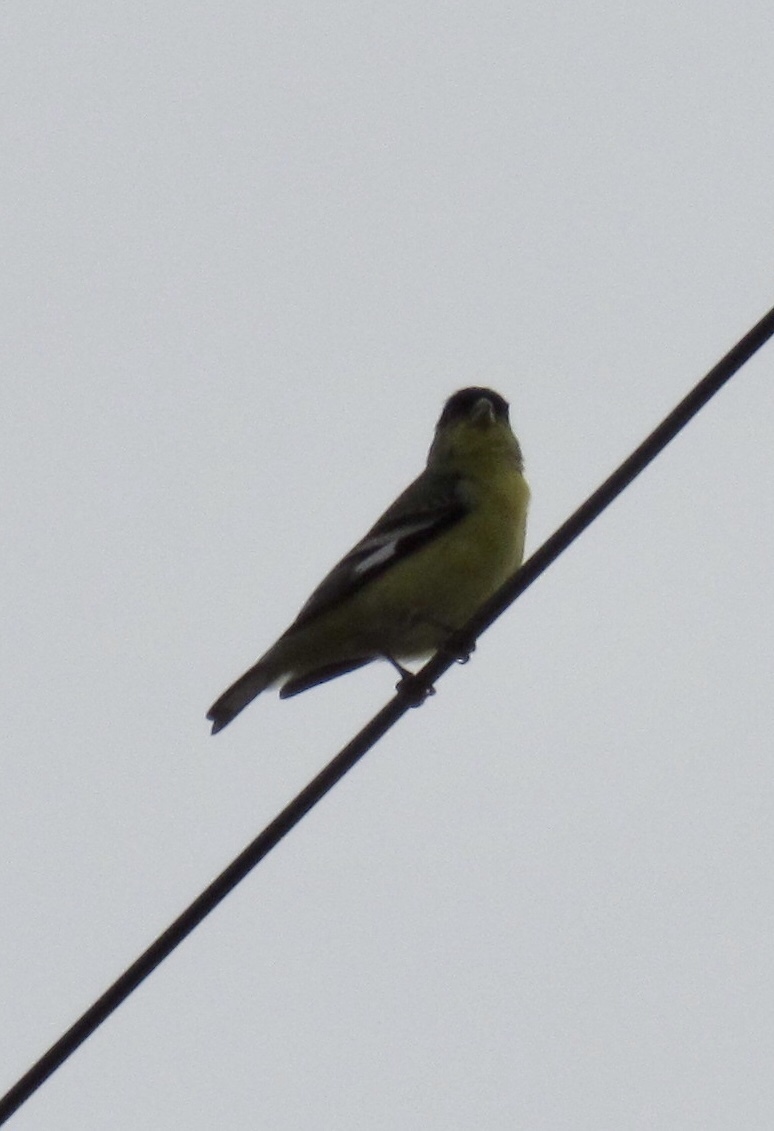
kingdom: Animalia
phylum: Chordata
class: Aves
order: Passeriformes
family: Fringillidae
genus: Spinus
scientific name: Spinus psaltria
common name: Lesser goldfinch
